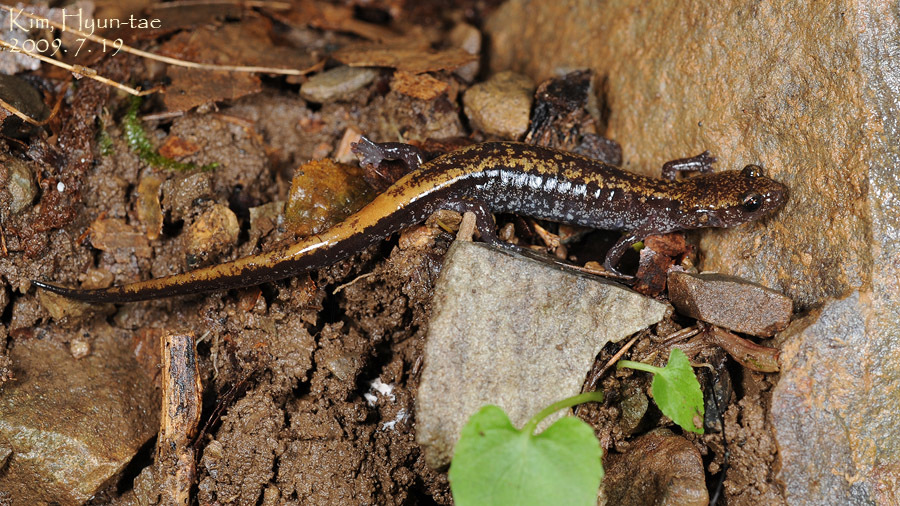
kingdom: Animalia
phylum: Chordata
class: Amphibia
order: Caudata
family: Plethodontidae
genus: Karsenia
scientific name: Karsenia koreana
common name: Korean crevice salamander
